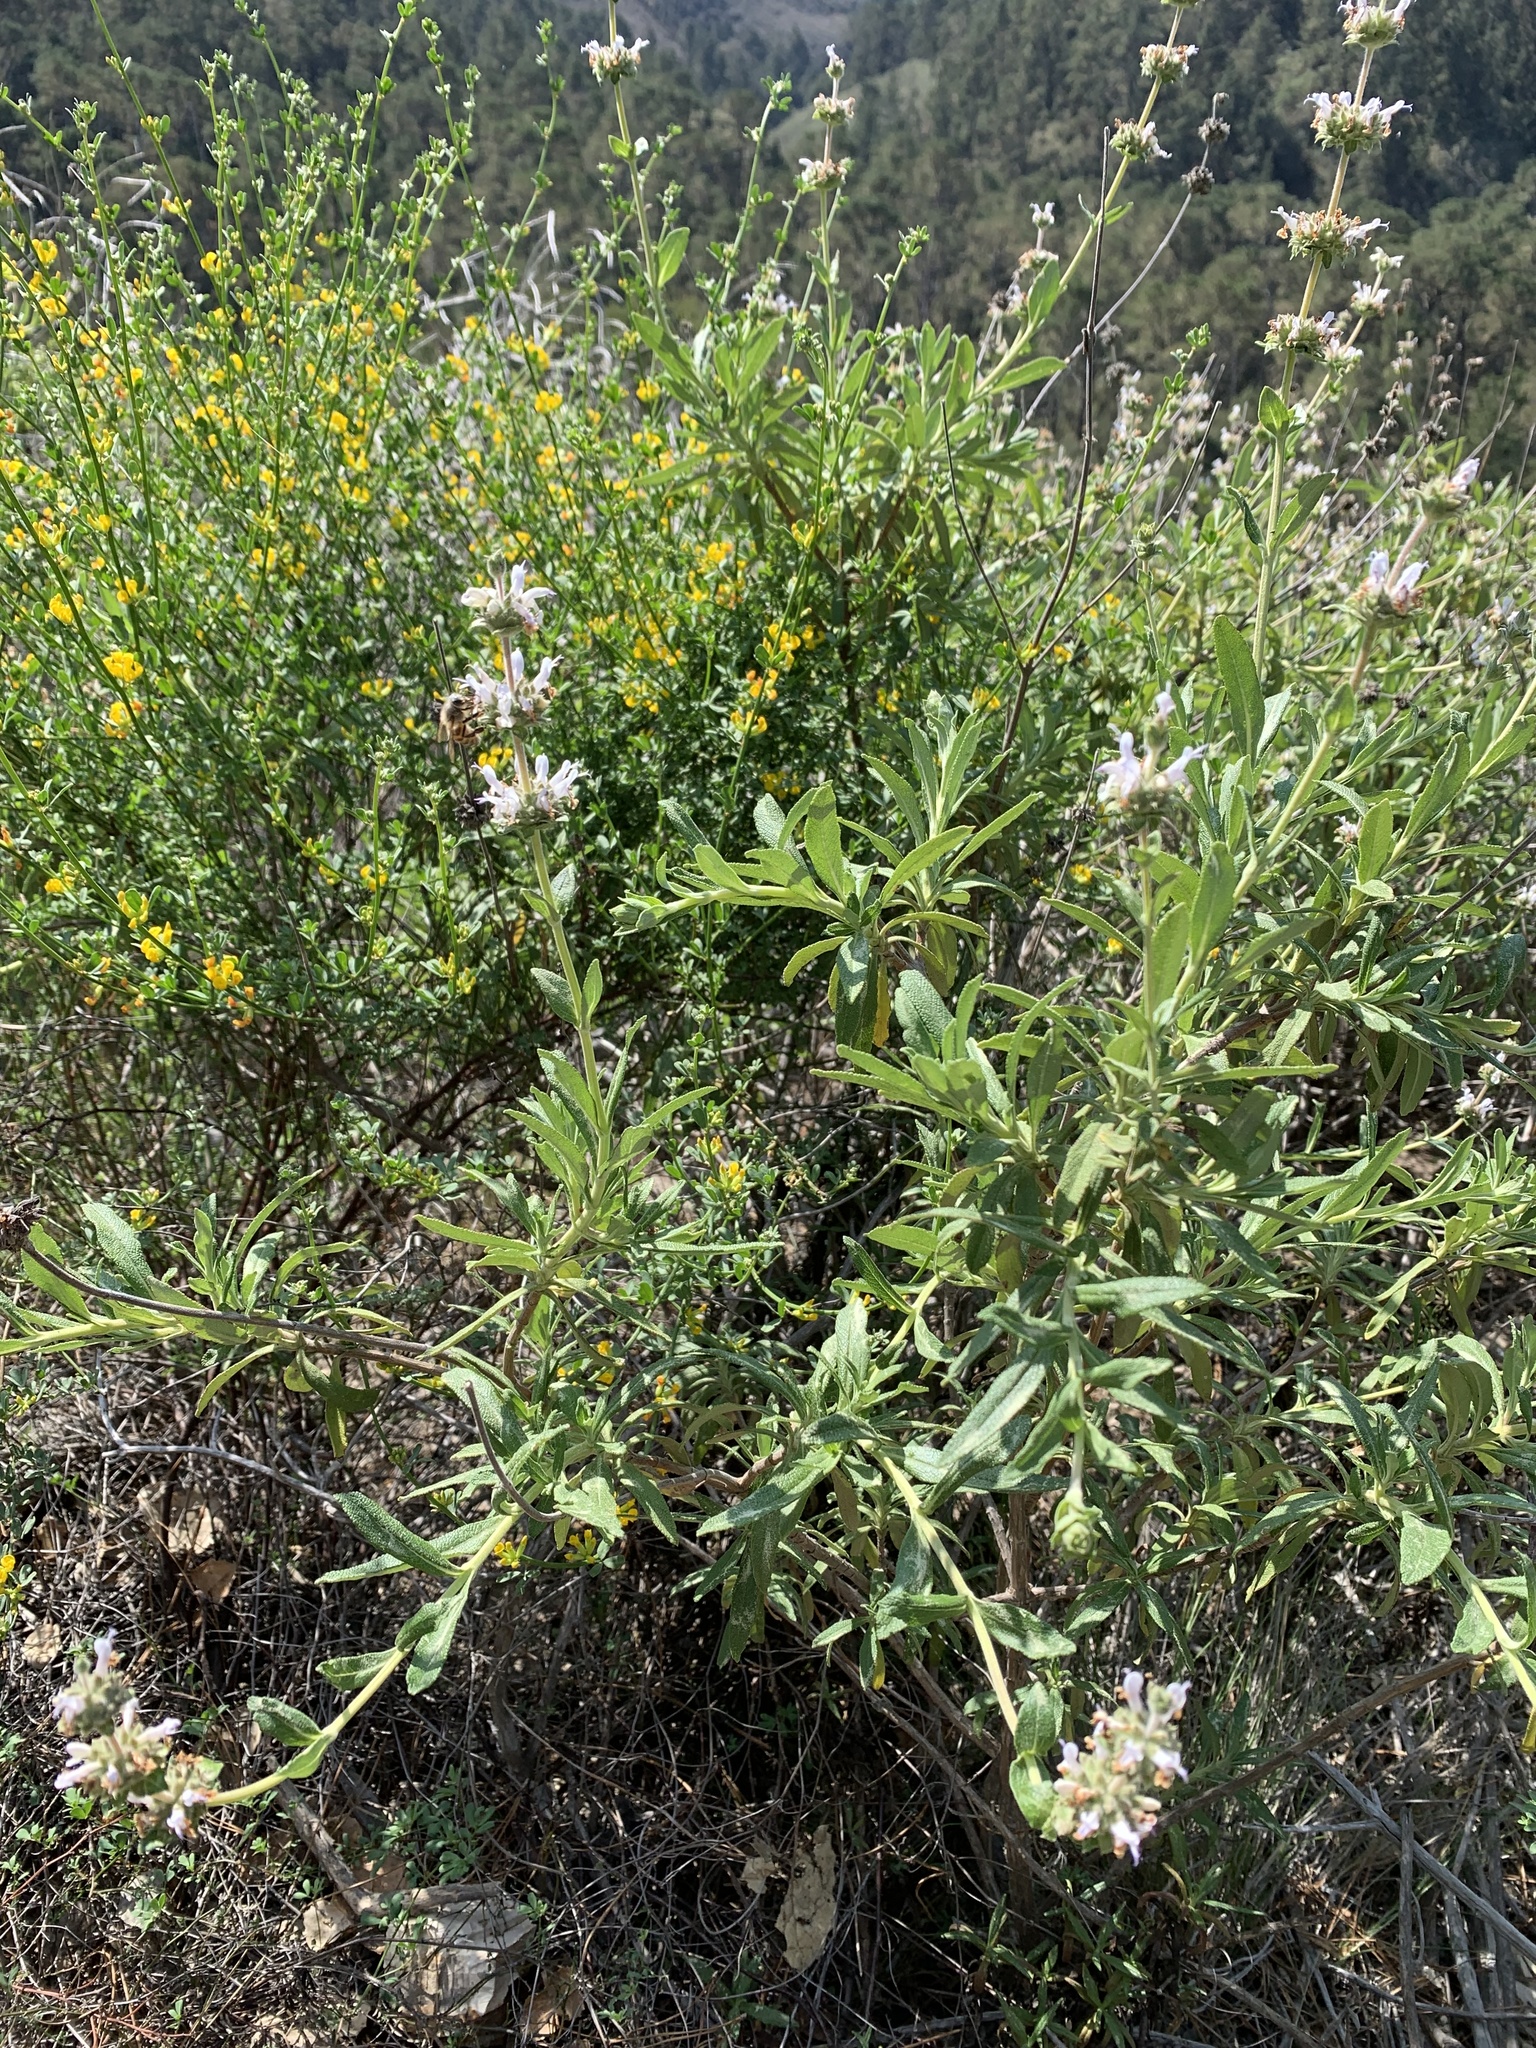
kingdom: Plantae
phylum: Tracheophyta
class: Magnoliopsida
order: Lamiales
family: Lamiaceae
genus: Salvia
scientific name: Salvia mellifera
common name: Black sage
